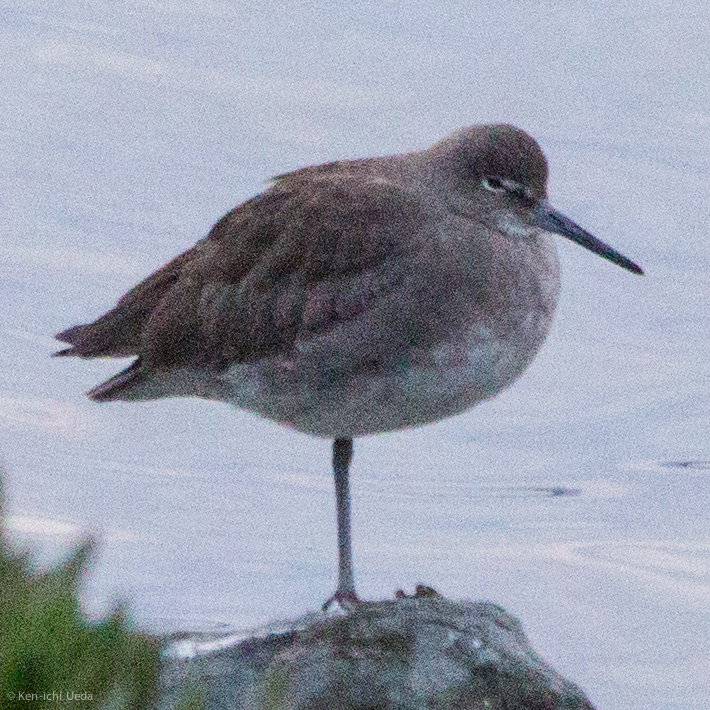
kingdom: Animalia
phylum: Chordata
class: Aves
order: Charadriiformes
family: Scolopacidae
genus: Tringa
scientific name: Tringa semipalmata
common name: Willet
